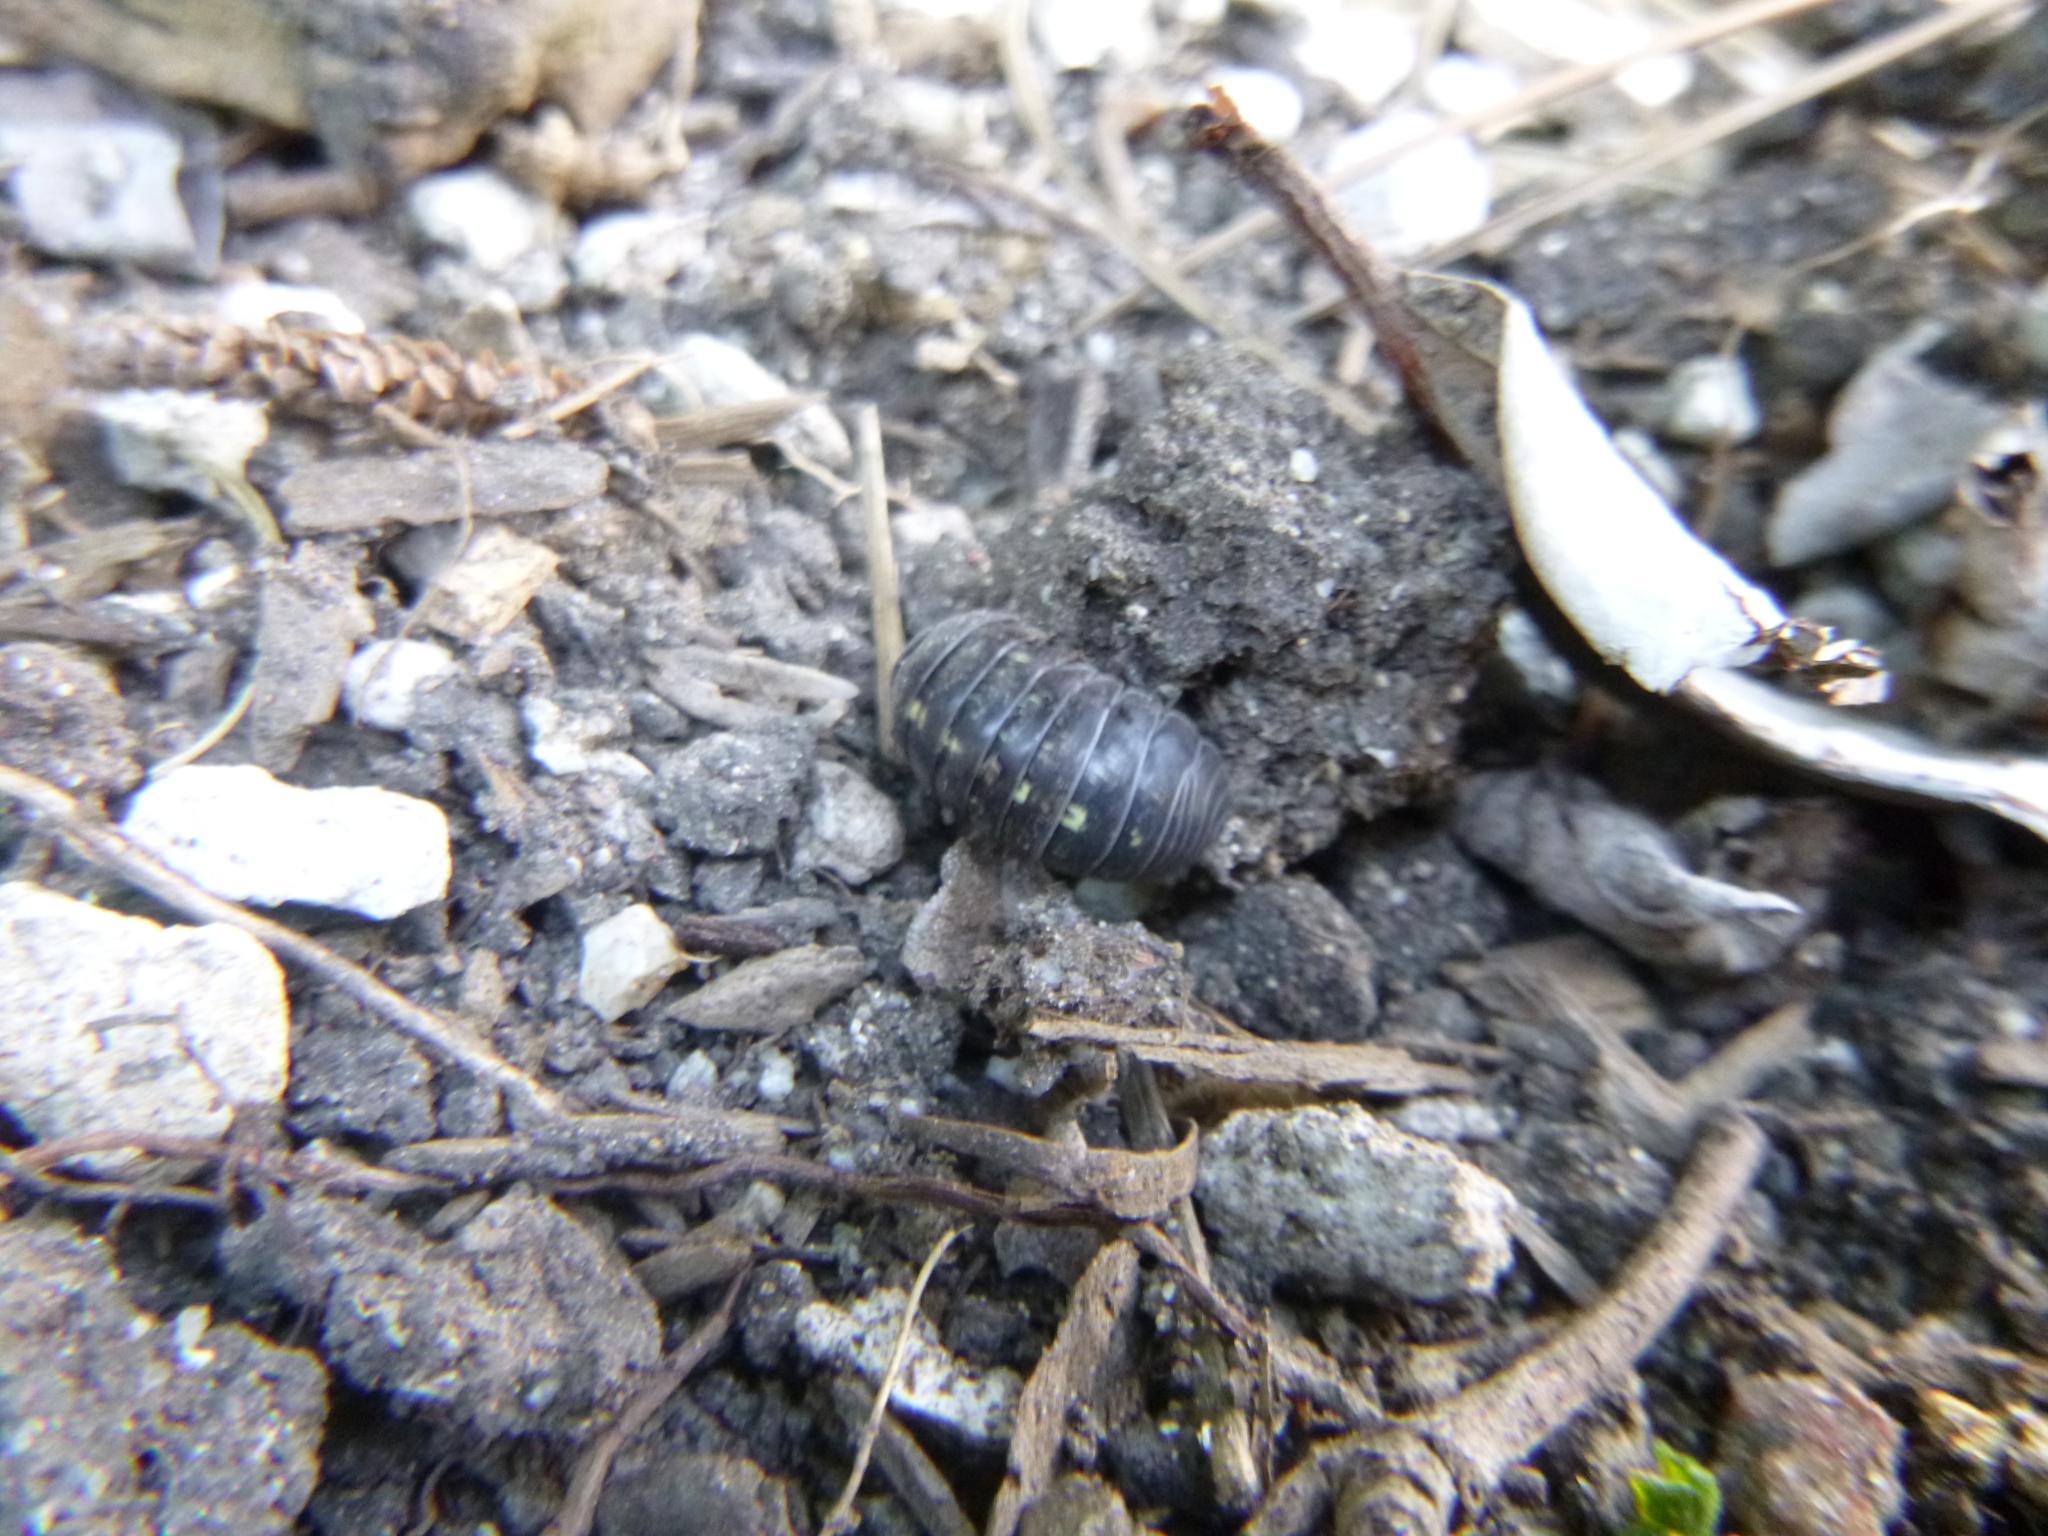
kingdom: Animalia
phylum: Arthropoda
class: Malacostraca
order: Isopoda
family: Armadillidiidae
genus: Armadillidium
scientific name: Armadillidium vulgare
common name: Common pill woodlouse
